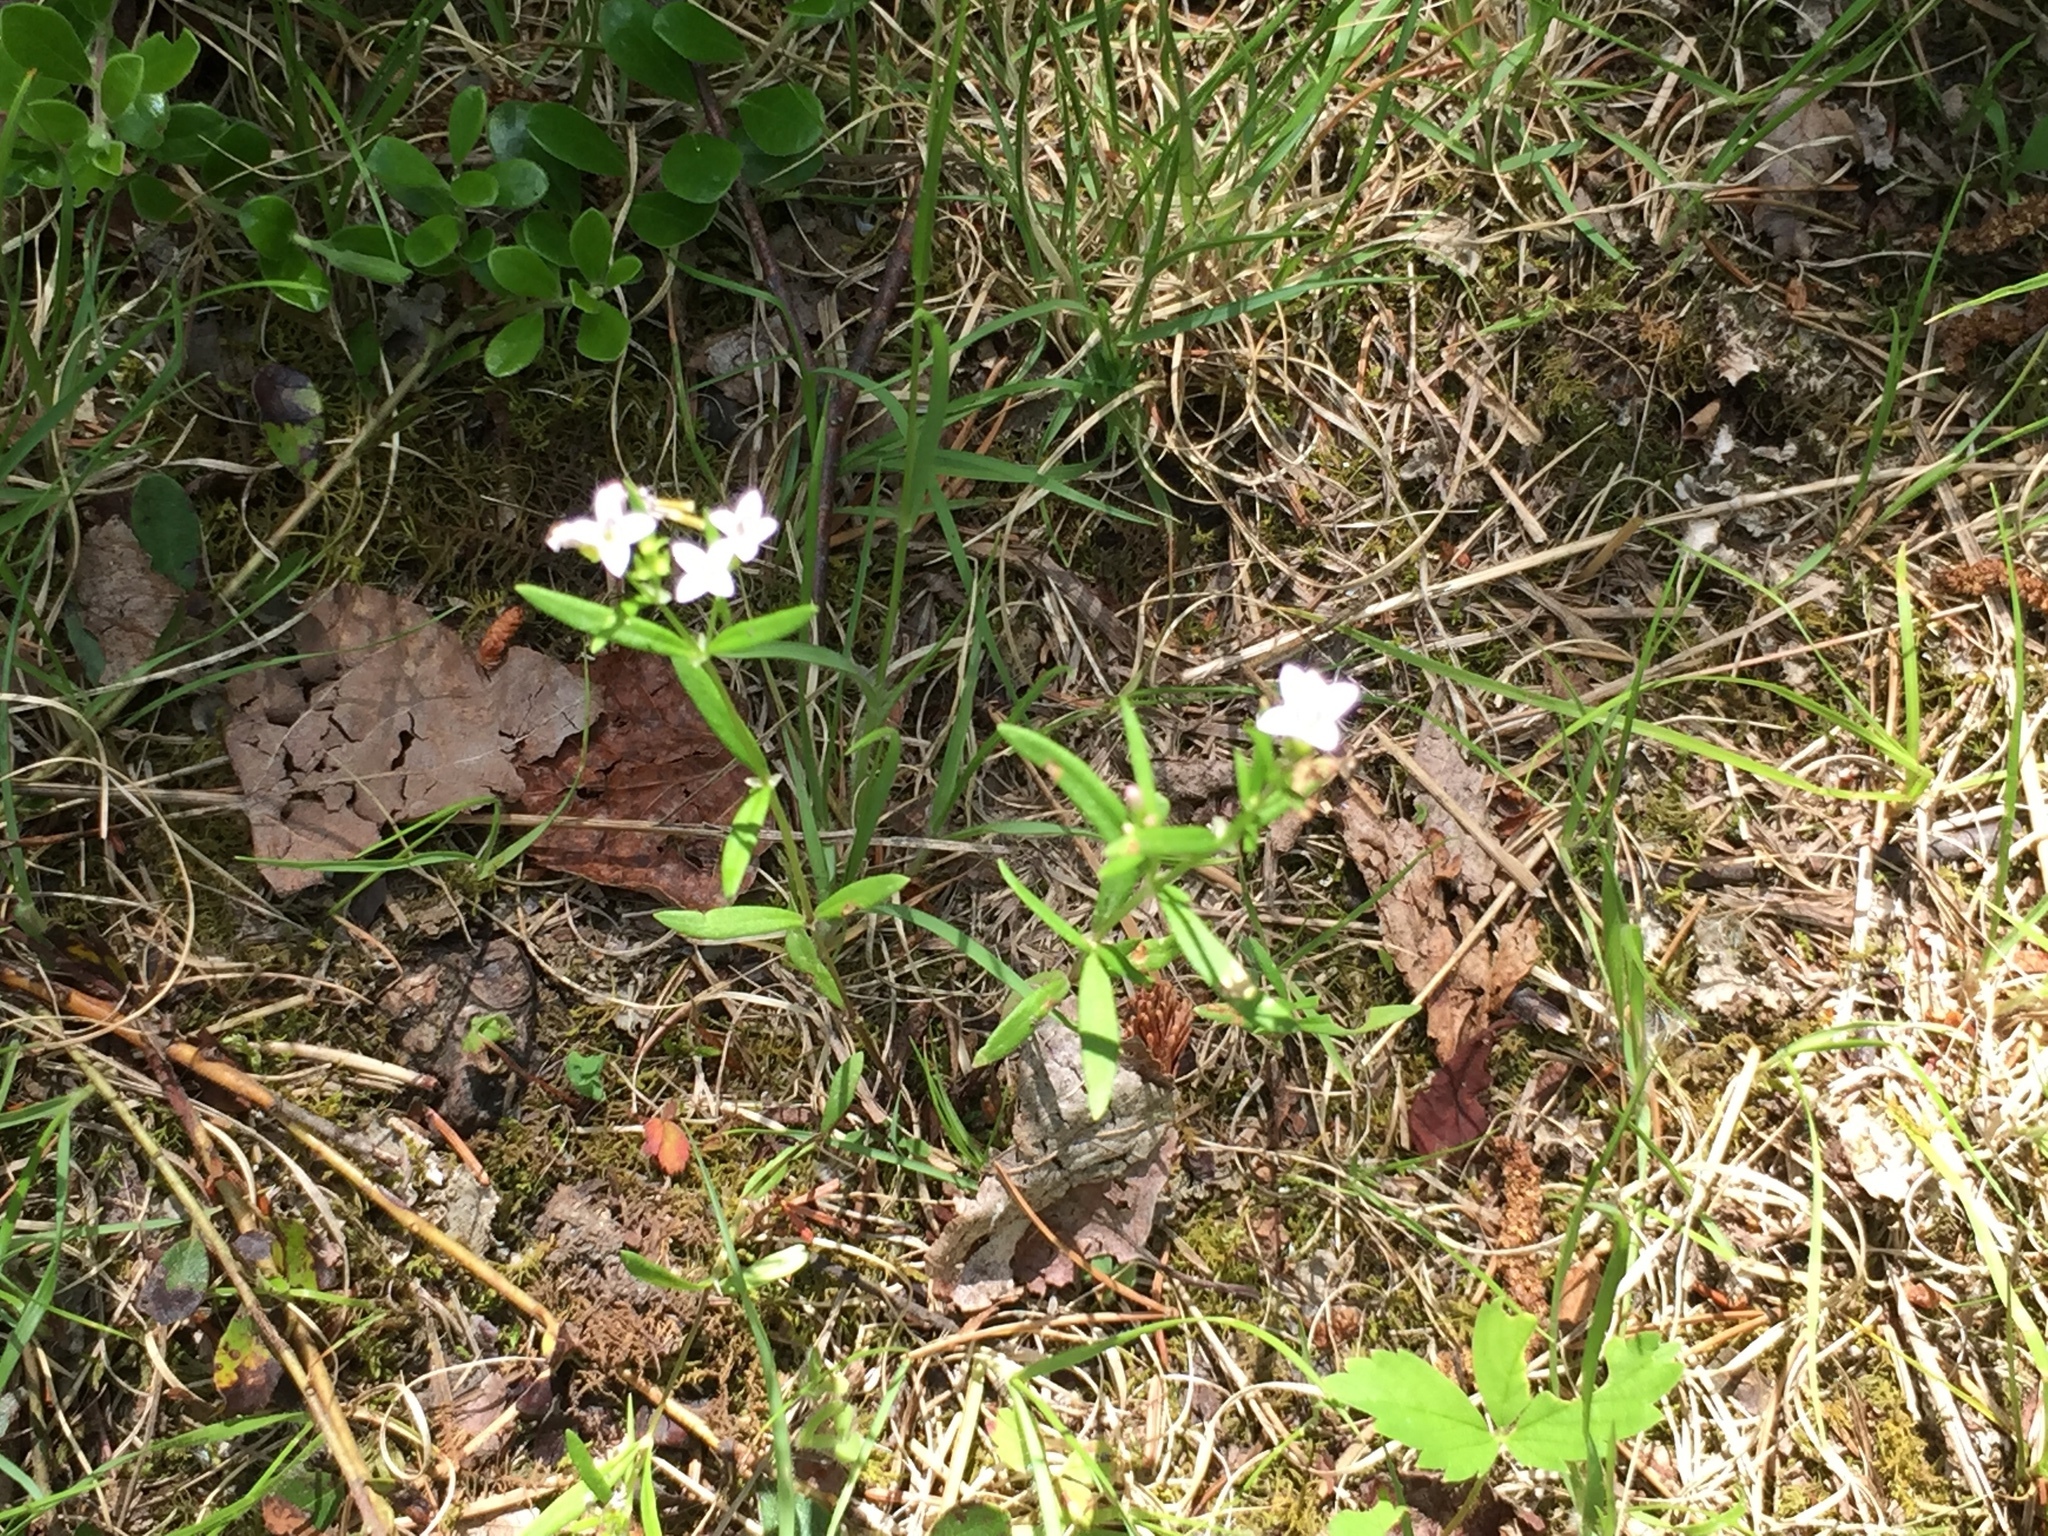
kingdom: Plantae
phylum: Tracheophyta
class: Magnoliopsida
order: Gentianales
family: Rubiaceae
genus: Houstonia
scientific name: Houstonia longifolia
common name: Long-leaved bluets
